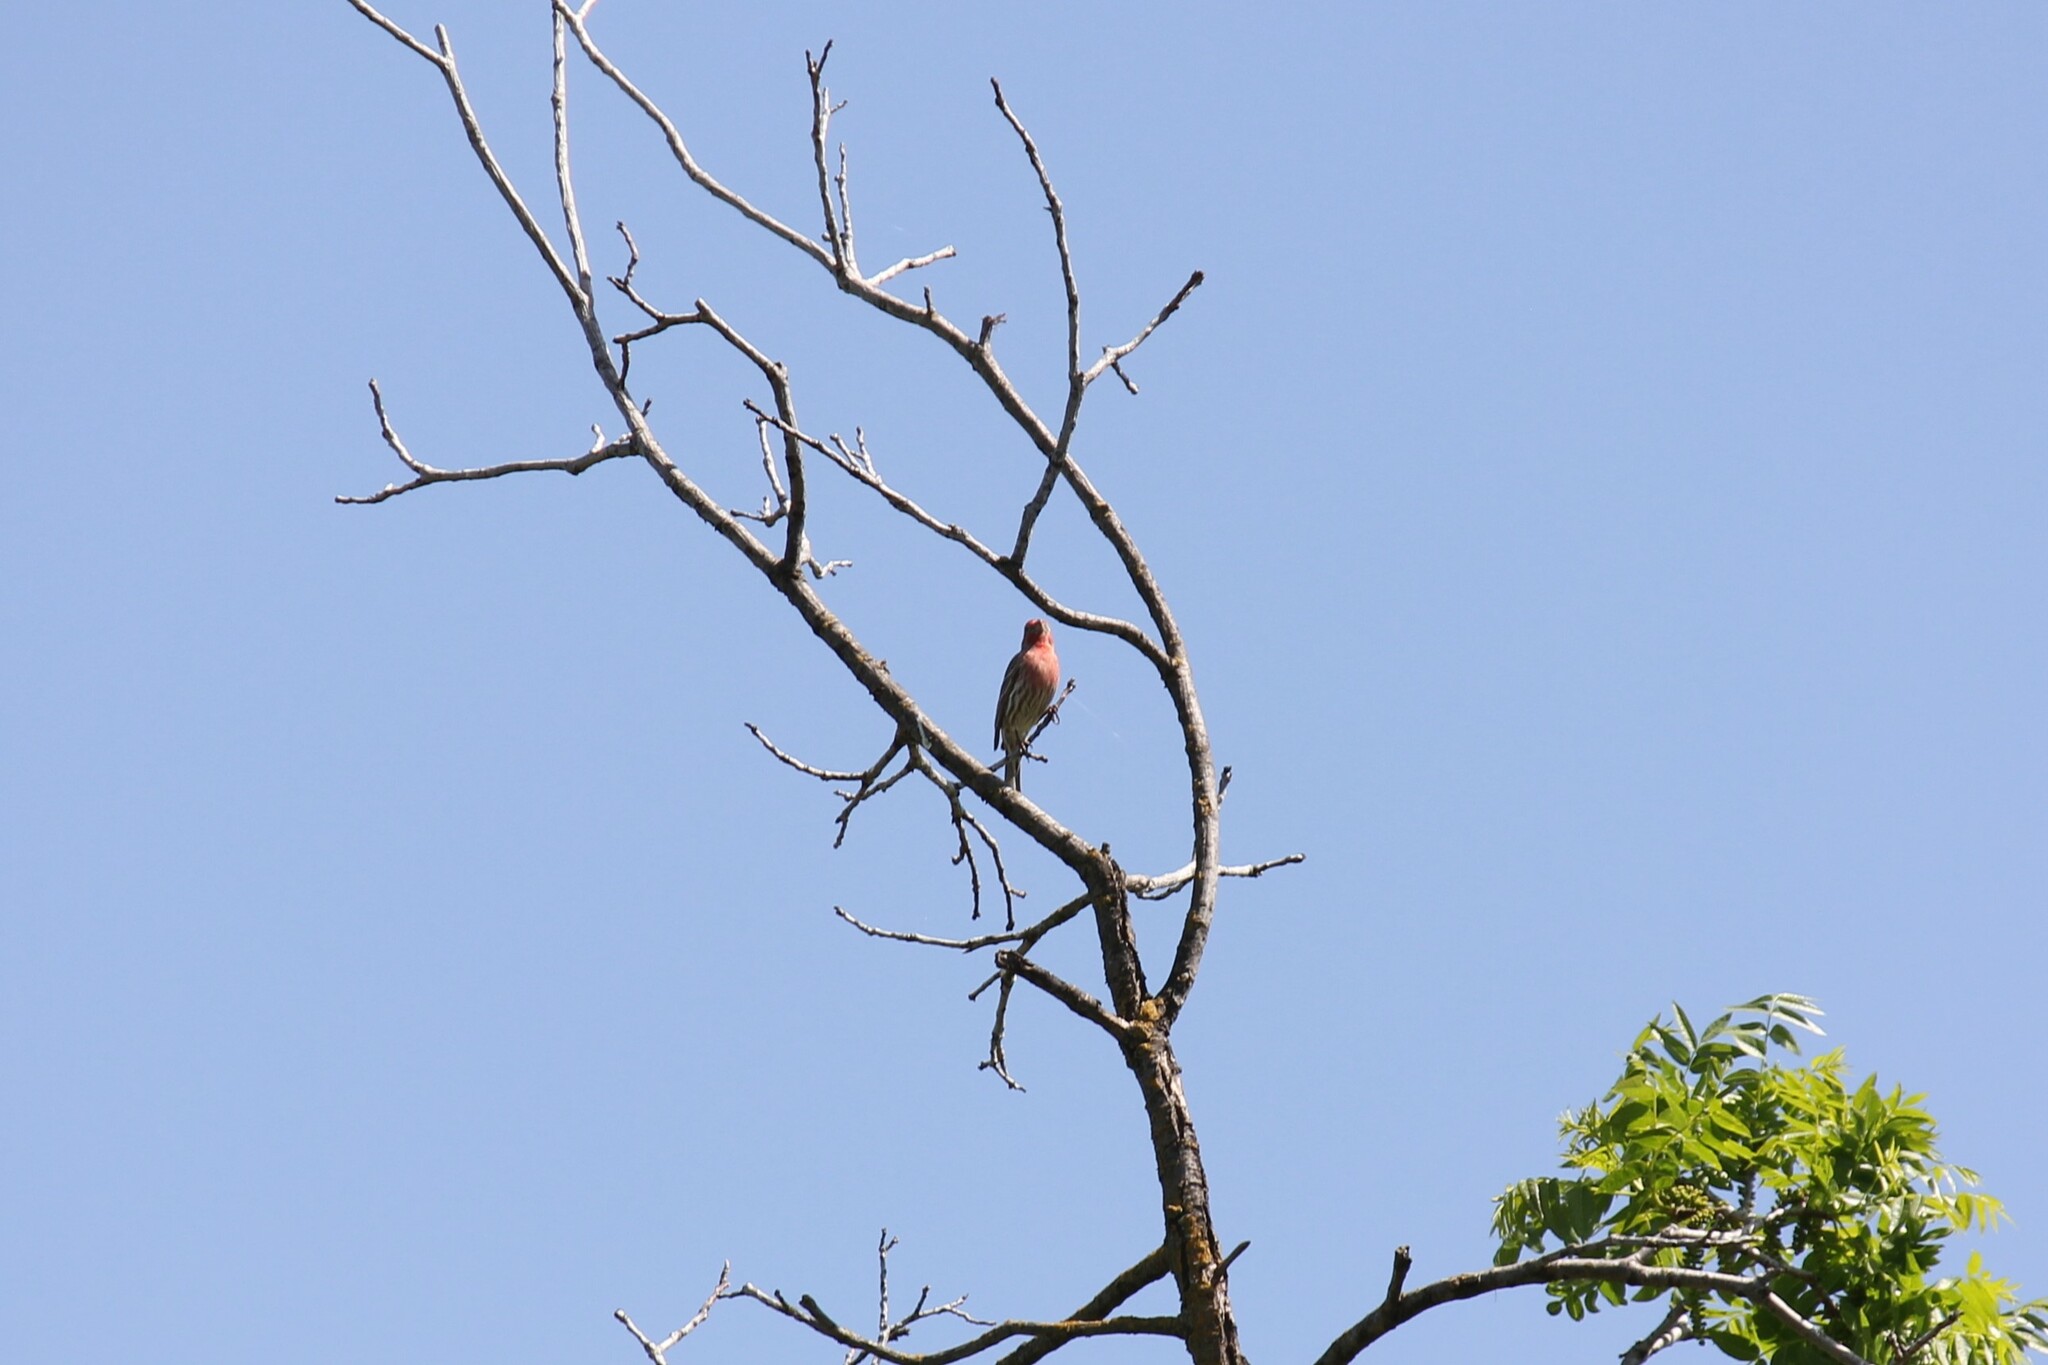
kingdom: Animalia
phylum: Chordata
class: Aves
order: Passeriformes
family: Fringillidae
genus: Haemorhous
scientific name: Haemorhous mexicanus
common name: House finch
